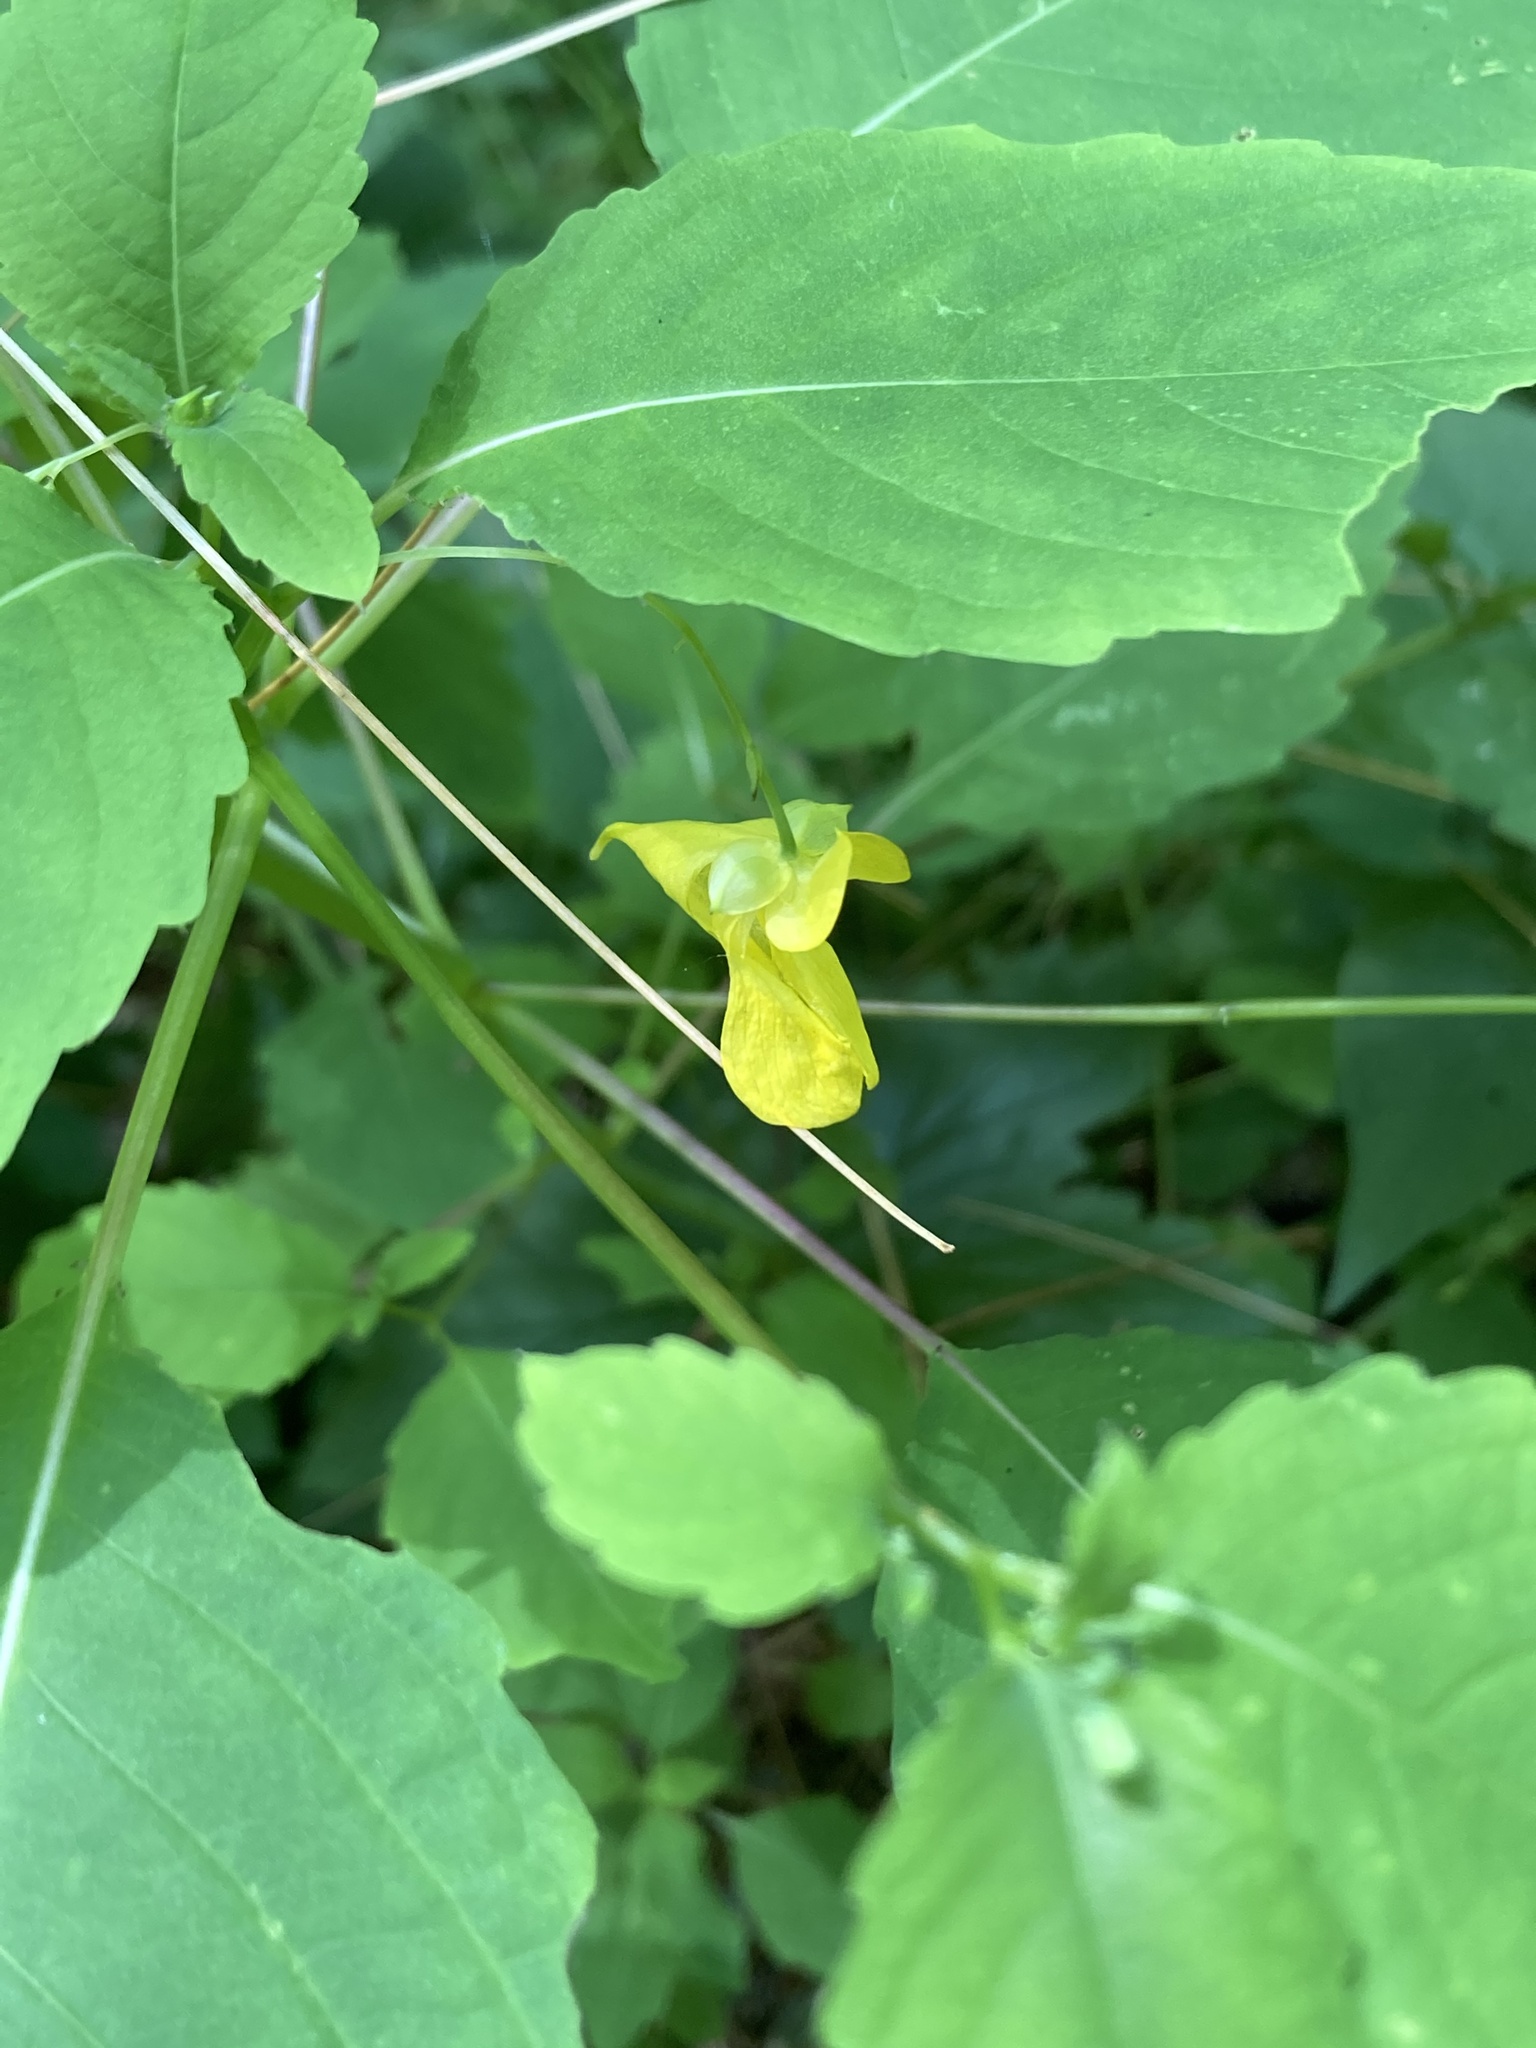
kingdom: Plantae
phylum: Tracheophyta
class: Magnoliopsida
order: Ericales
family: Balsaminaceae
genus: Impatiens
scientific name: Impatiens pallida
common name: Pale snapweed
